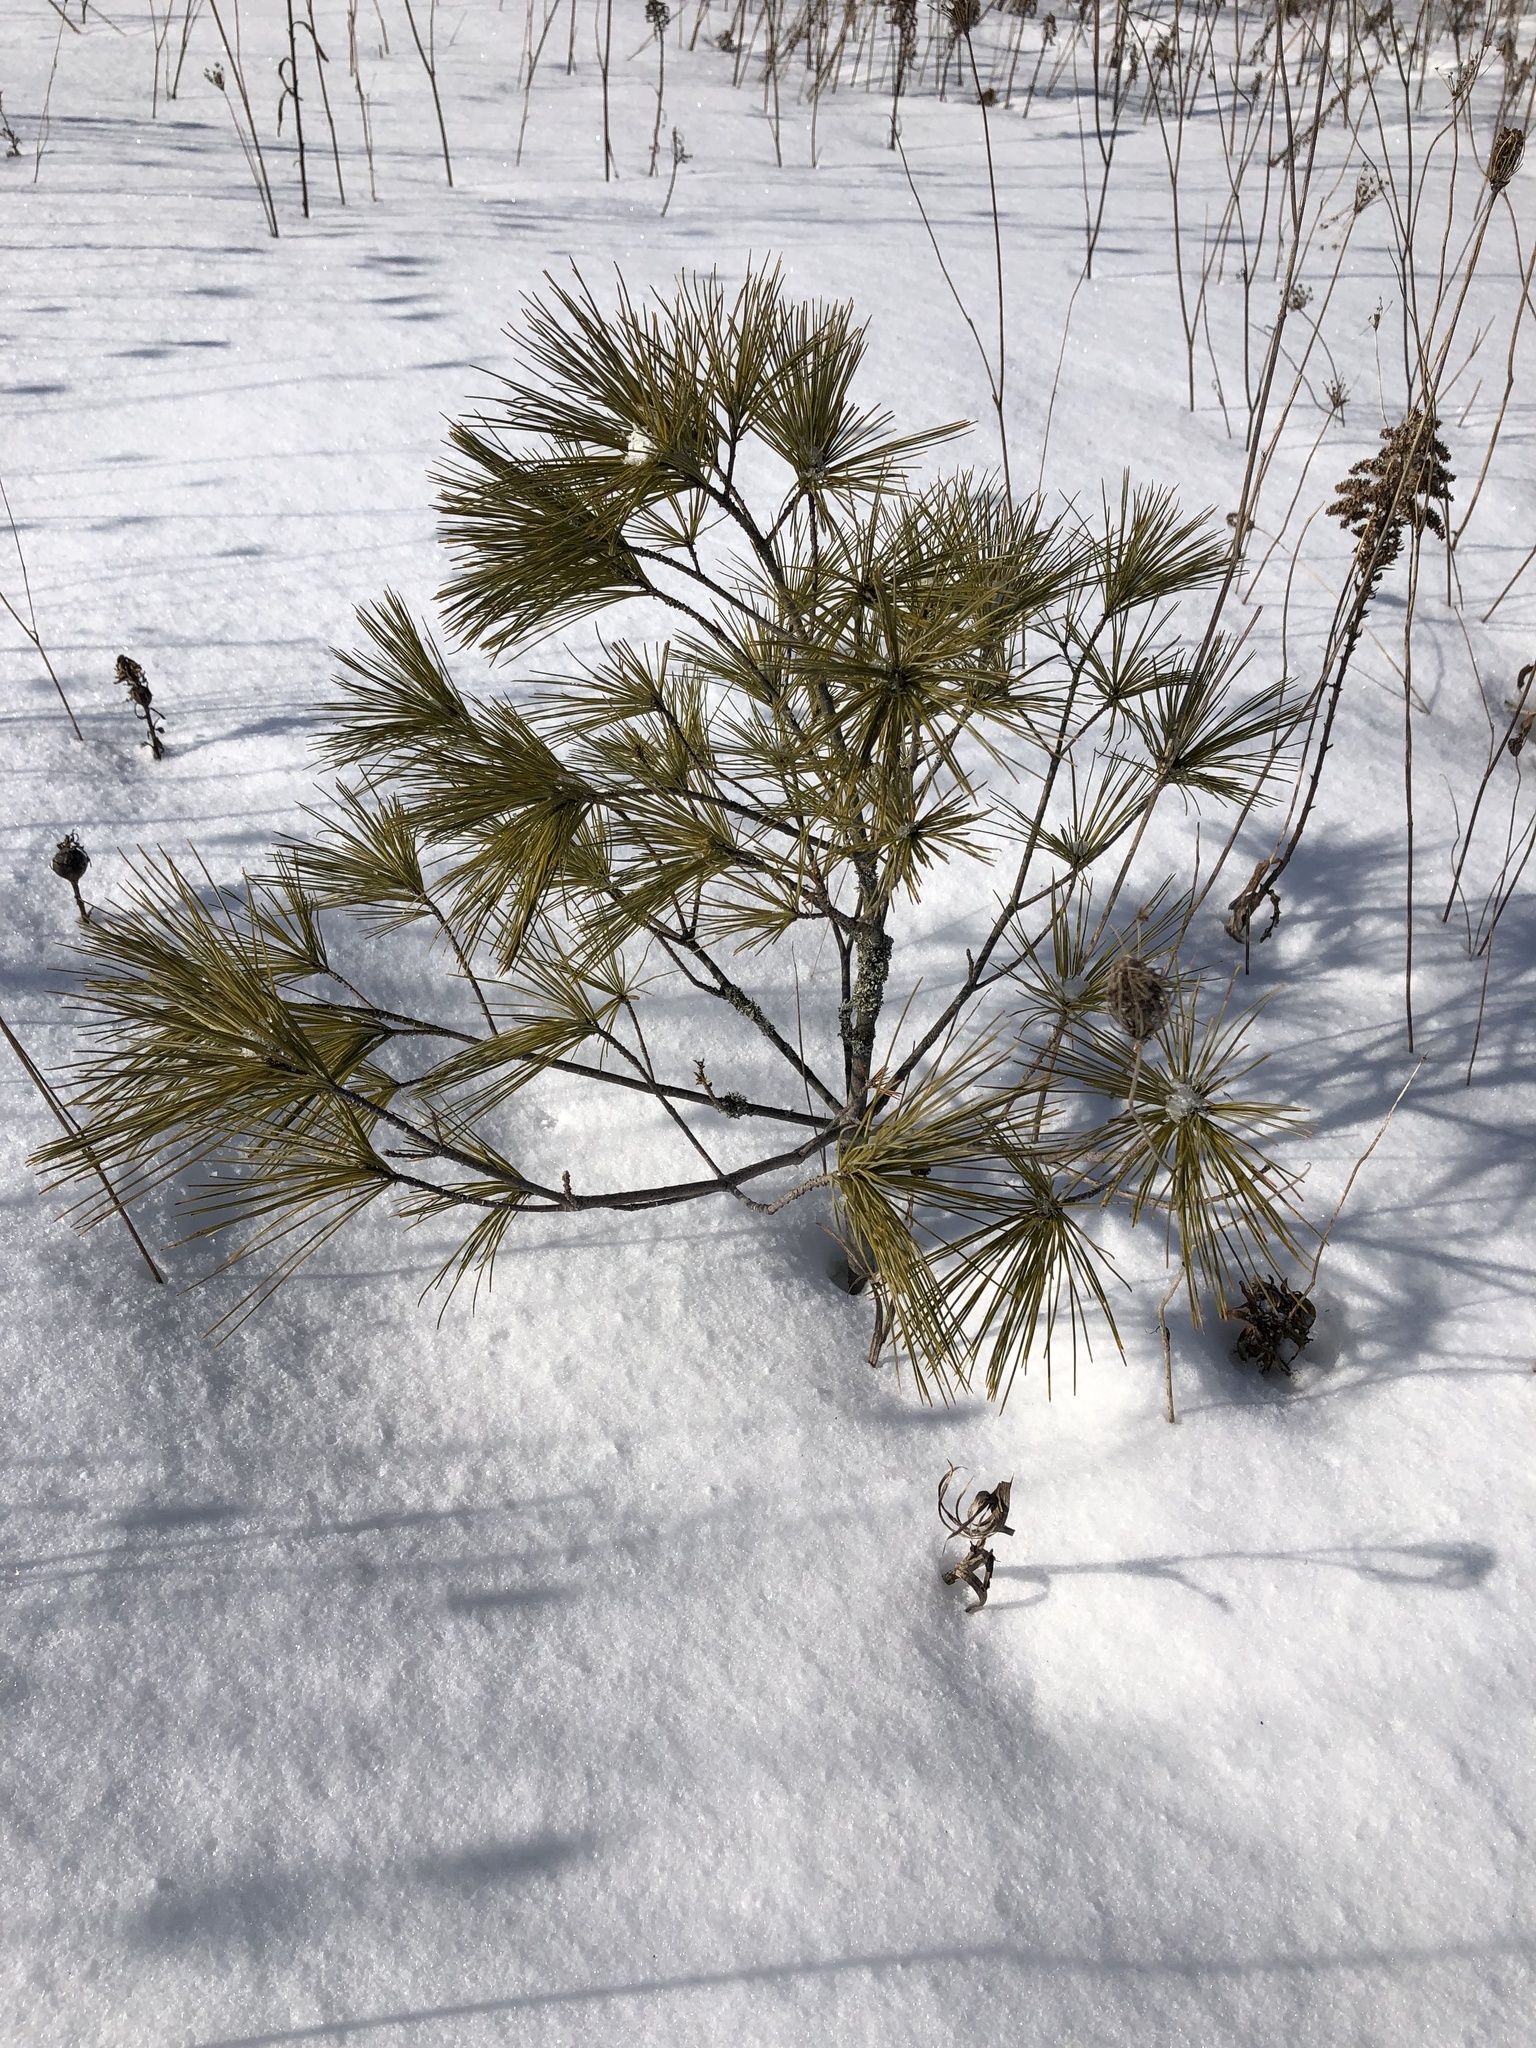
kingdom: Plantae
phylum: Tracheophyta
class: Pinopsida
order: Pinales
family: Pinaceae
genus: Pinus
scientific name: Pinus strobus
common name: Weymouth pine
